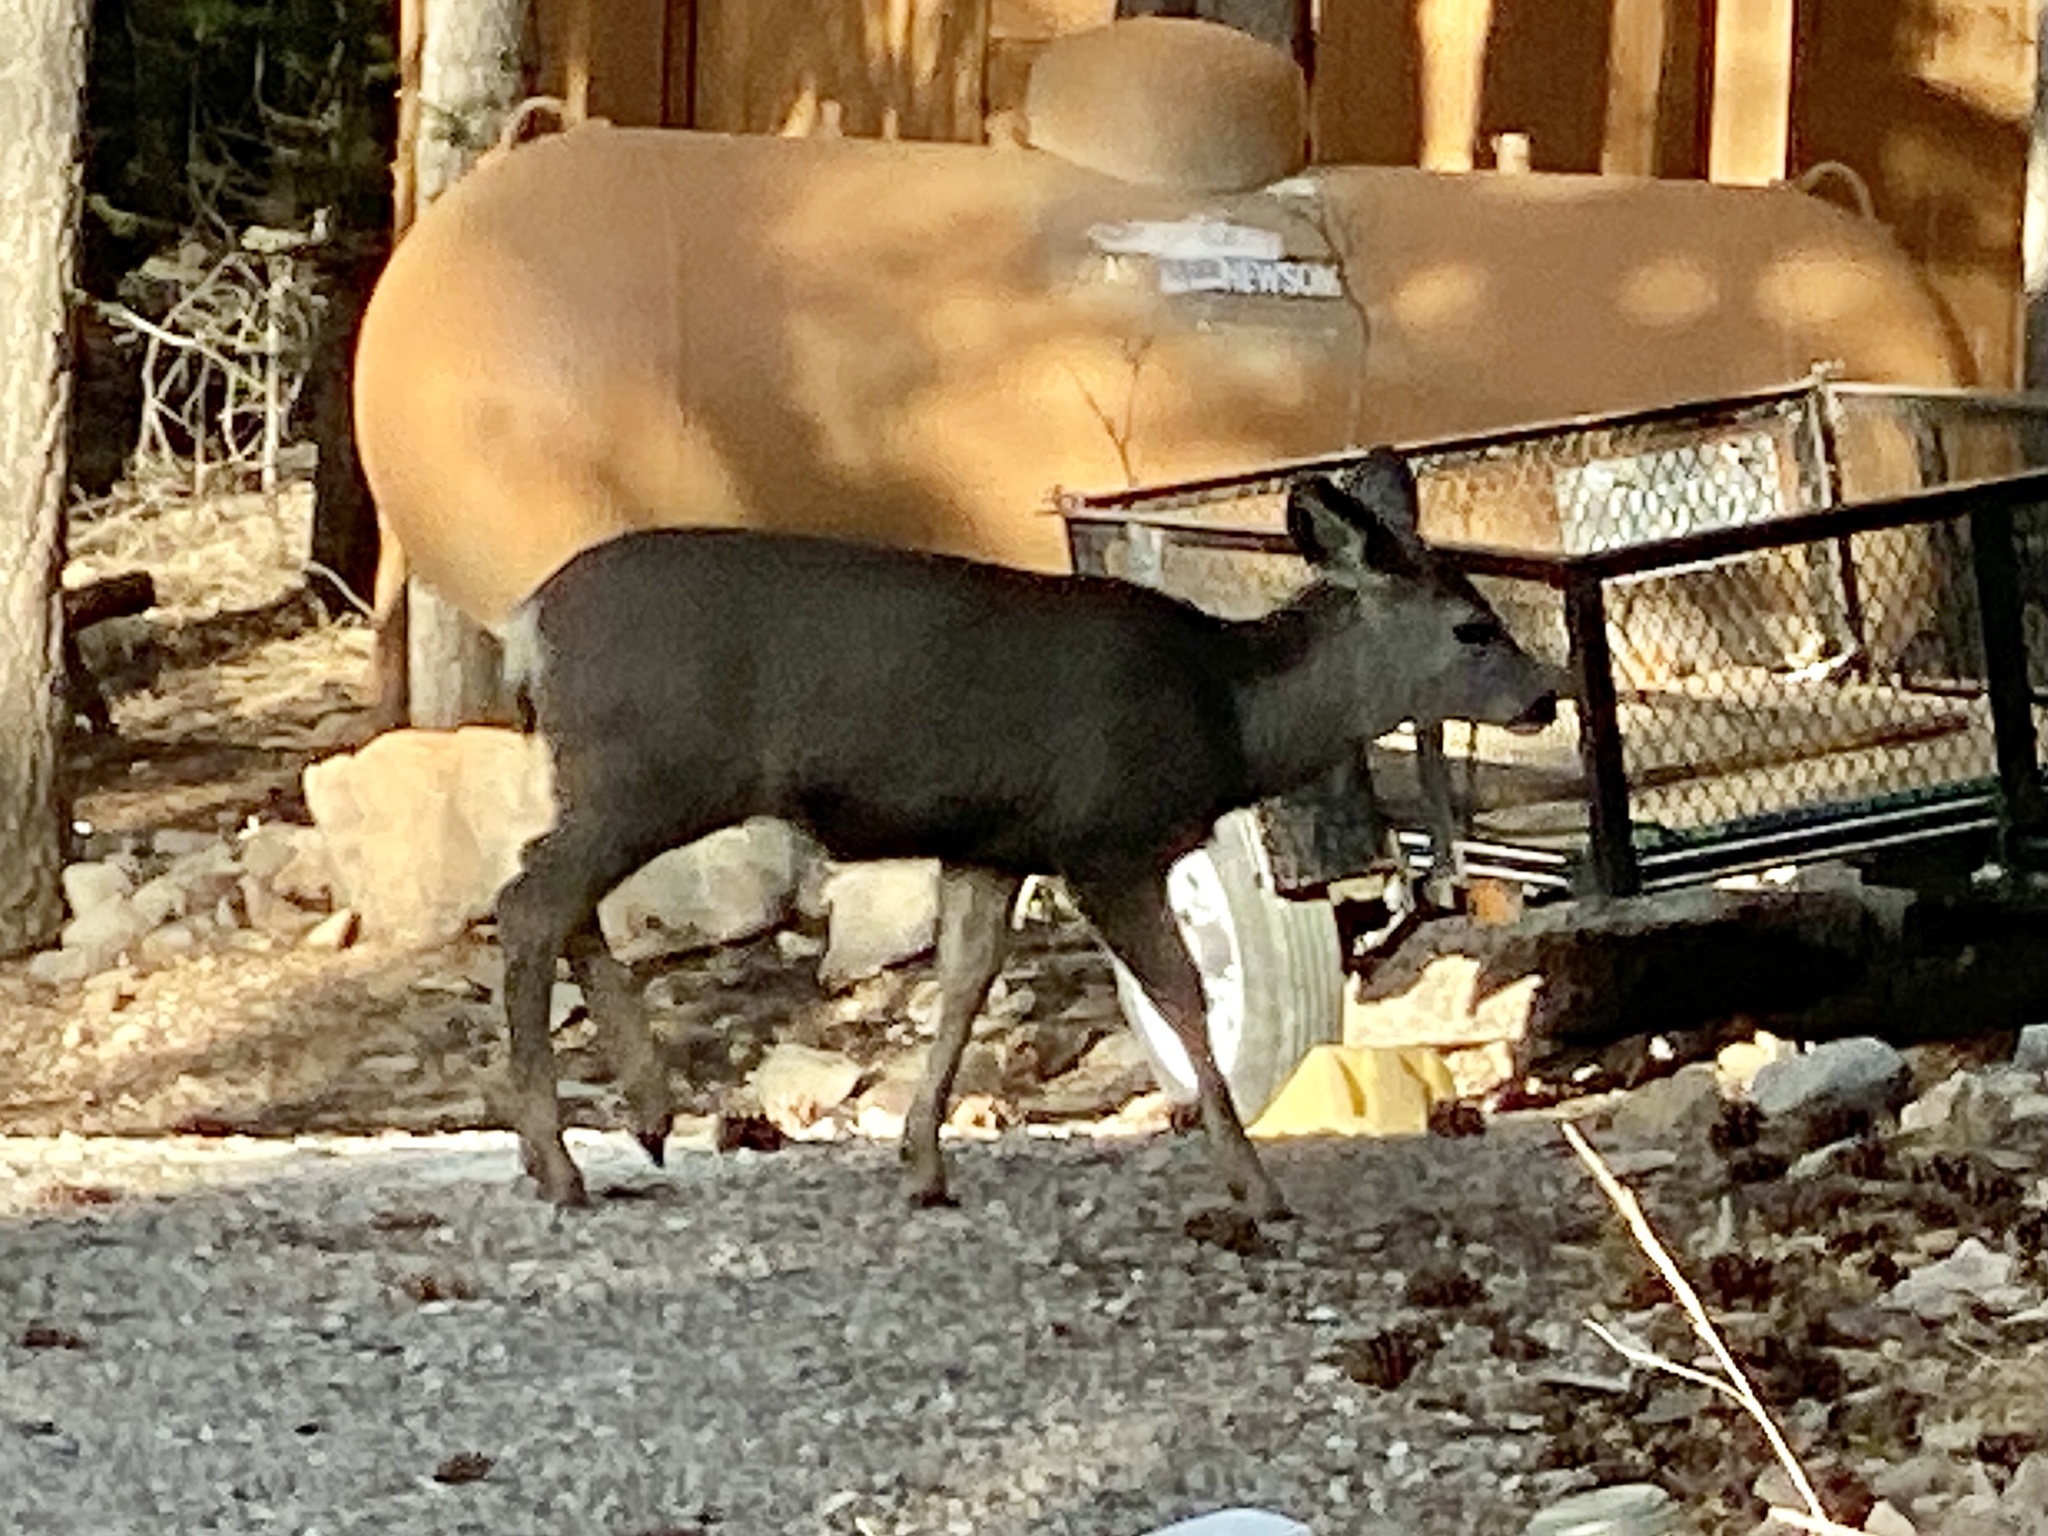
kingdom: Animalia
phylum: Chordata
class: Mammalia
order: Artiodactyla
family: Cervidae
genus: Odocoileus
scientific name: Odocoileus hemionus
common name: Mule deer
